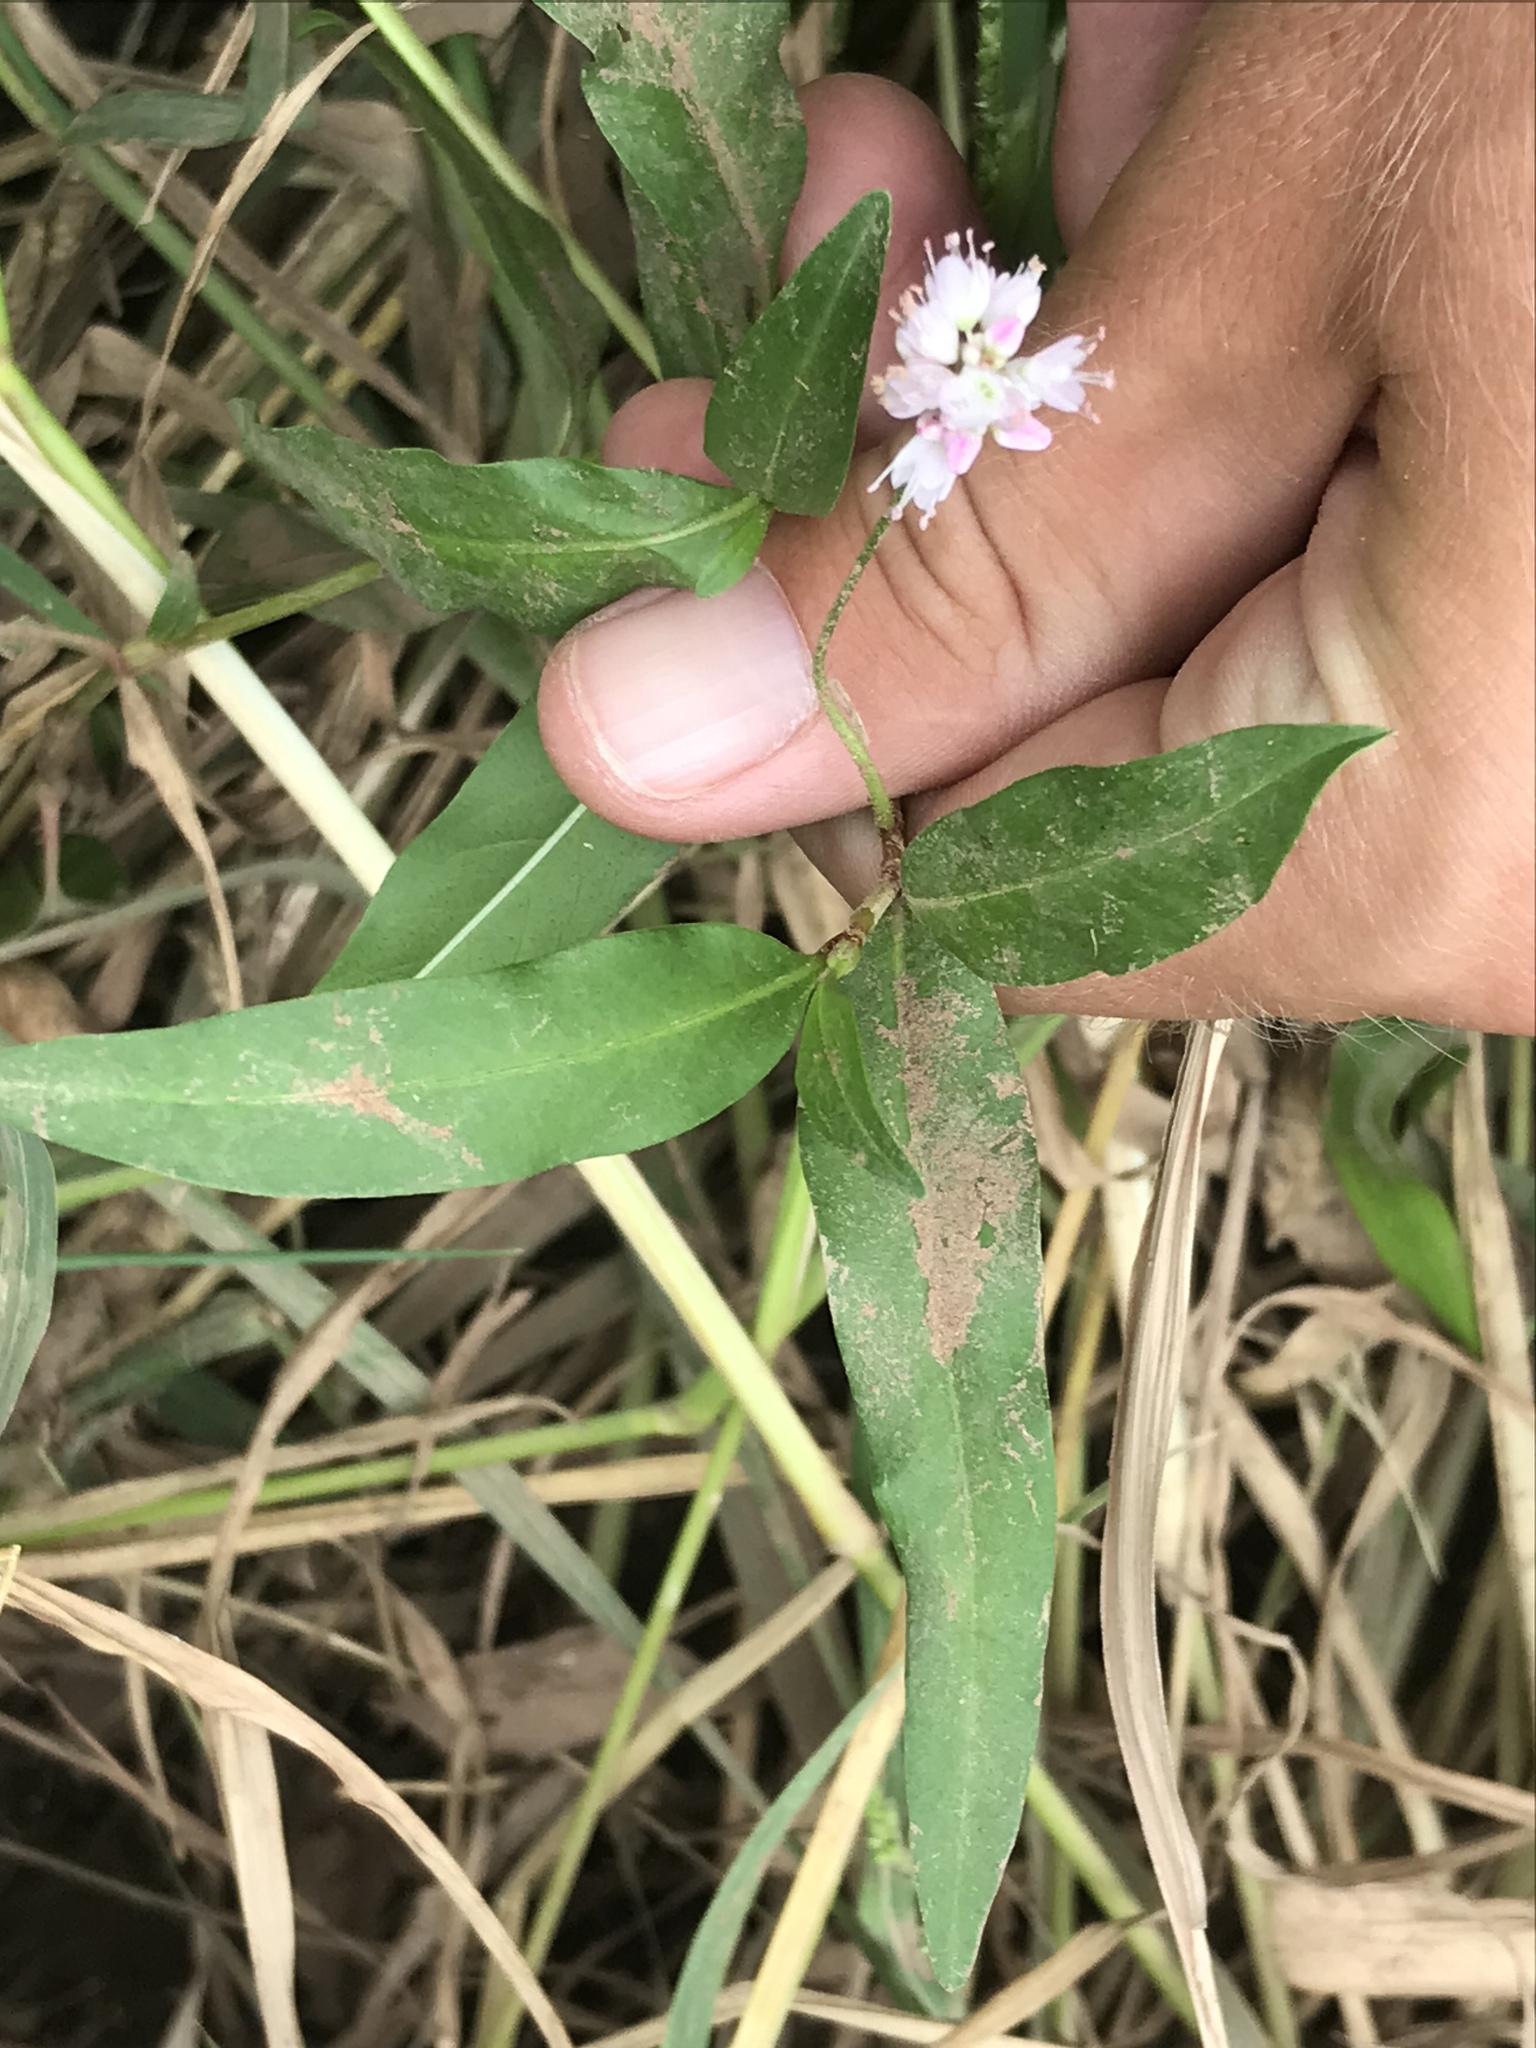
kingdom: Plantae
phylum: Tracheophyta
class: Magnoliopsida
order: Caryophyllales
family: Polygonaceae
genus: Persicaria
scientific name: Persicaria bicornis
